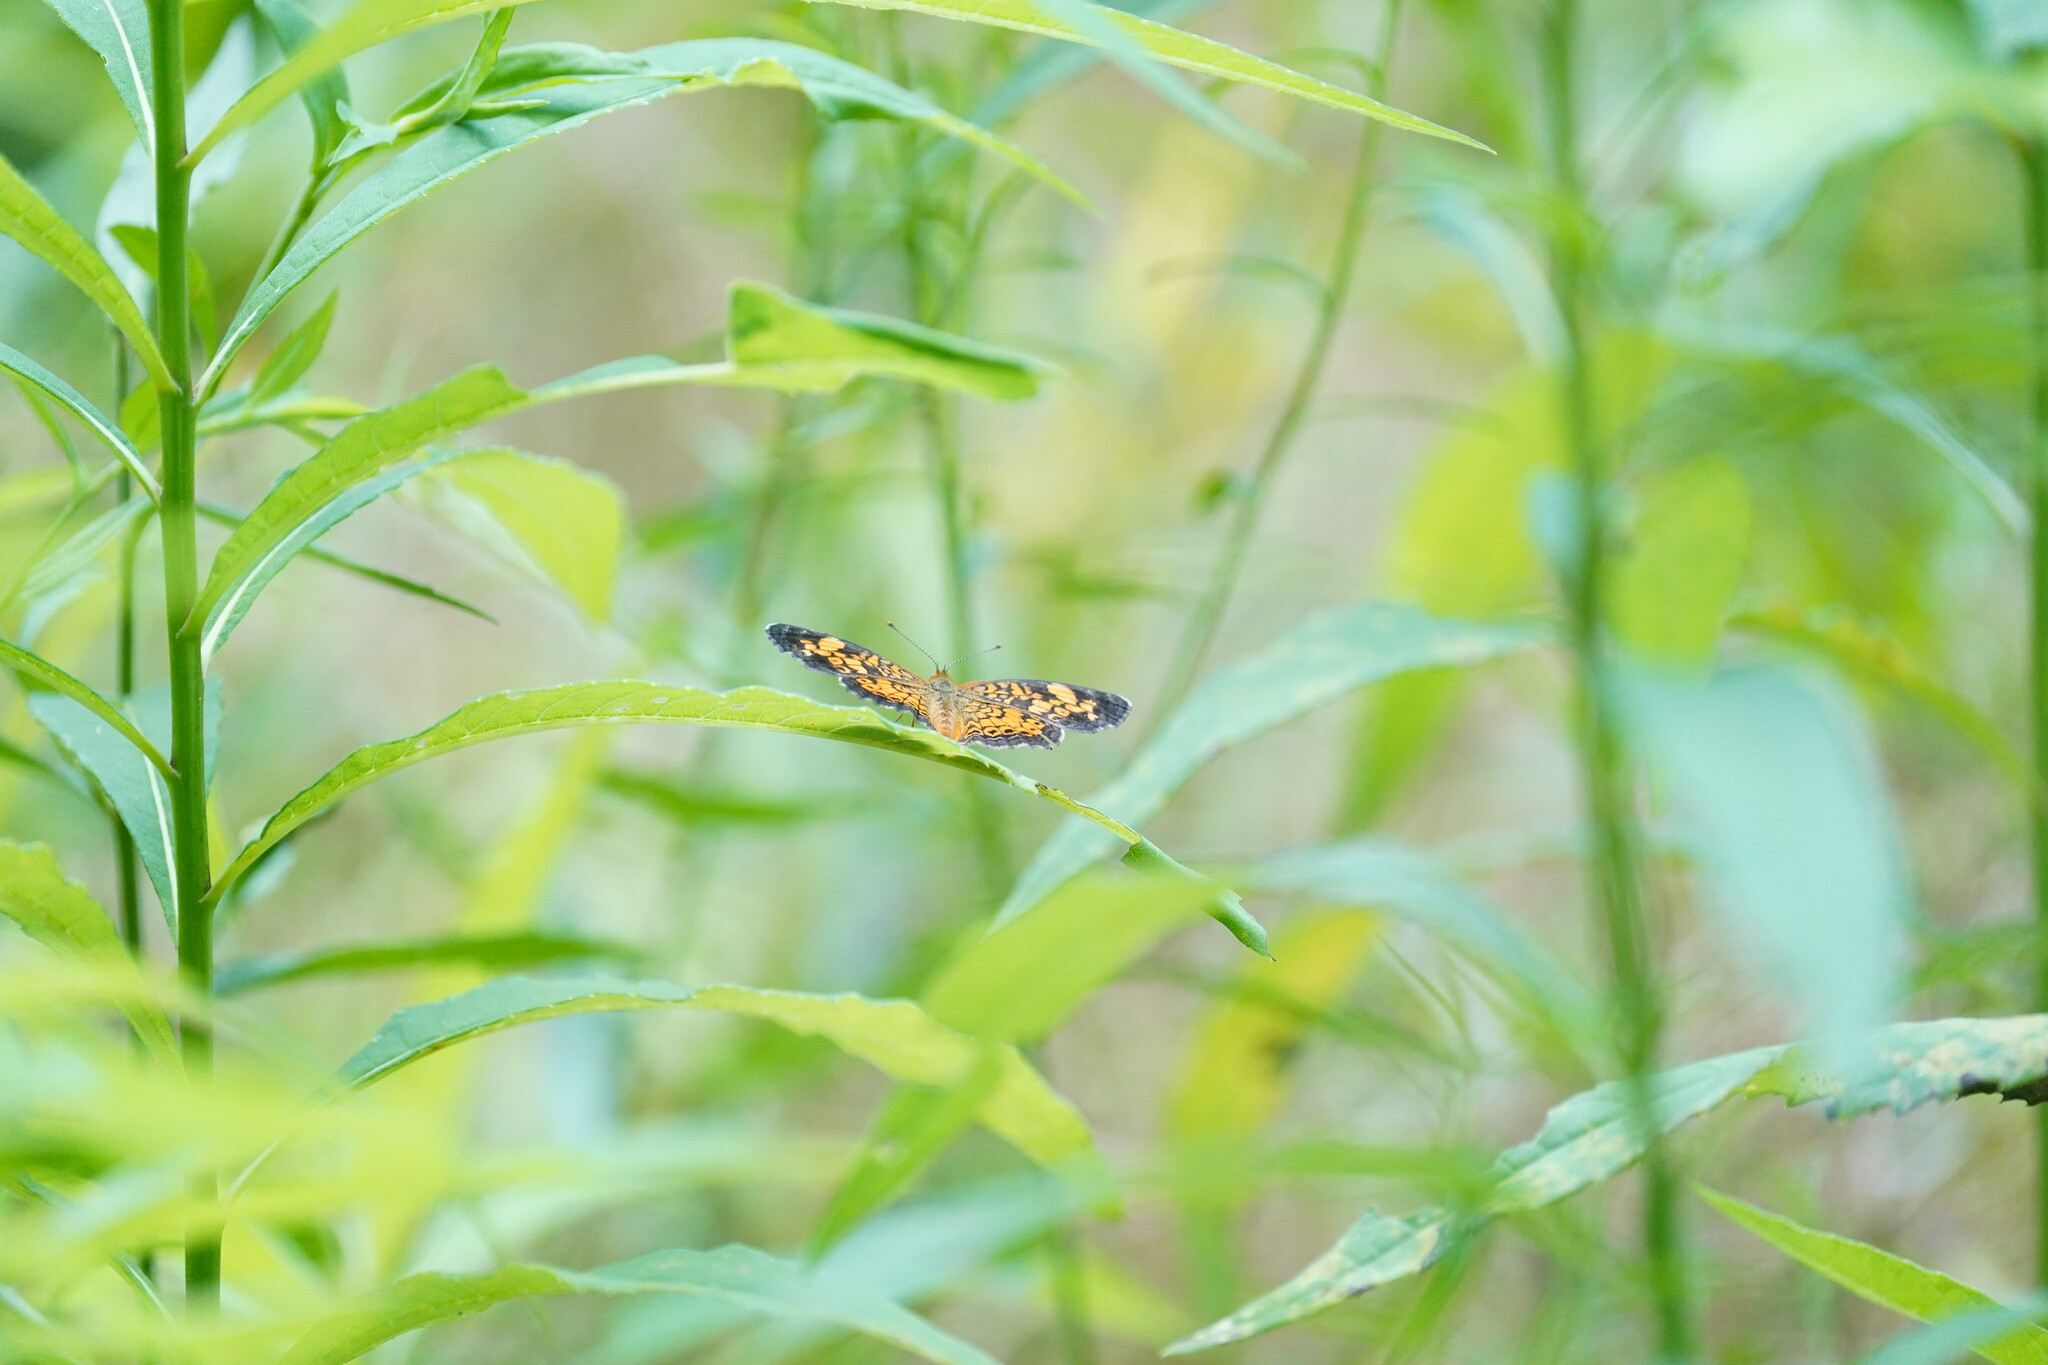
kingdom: Animalia
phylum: Arthropoda
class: Insecta
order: Lepidoptera
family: Nymphalidae
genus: Phyciodes
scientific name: Phyciodes tharos
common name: Pearl crescent
